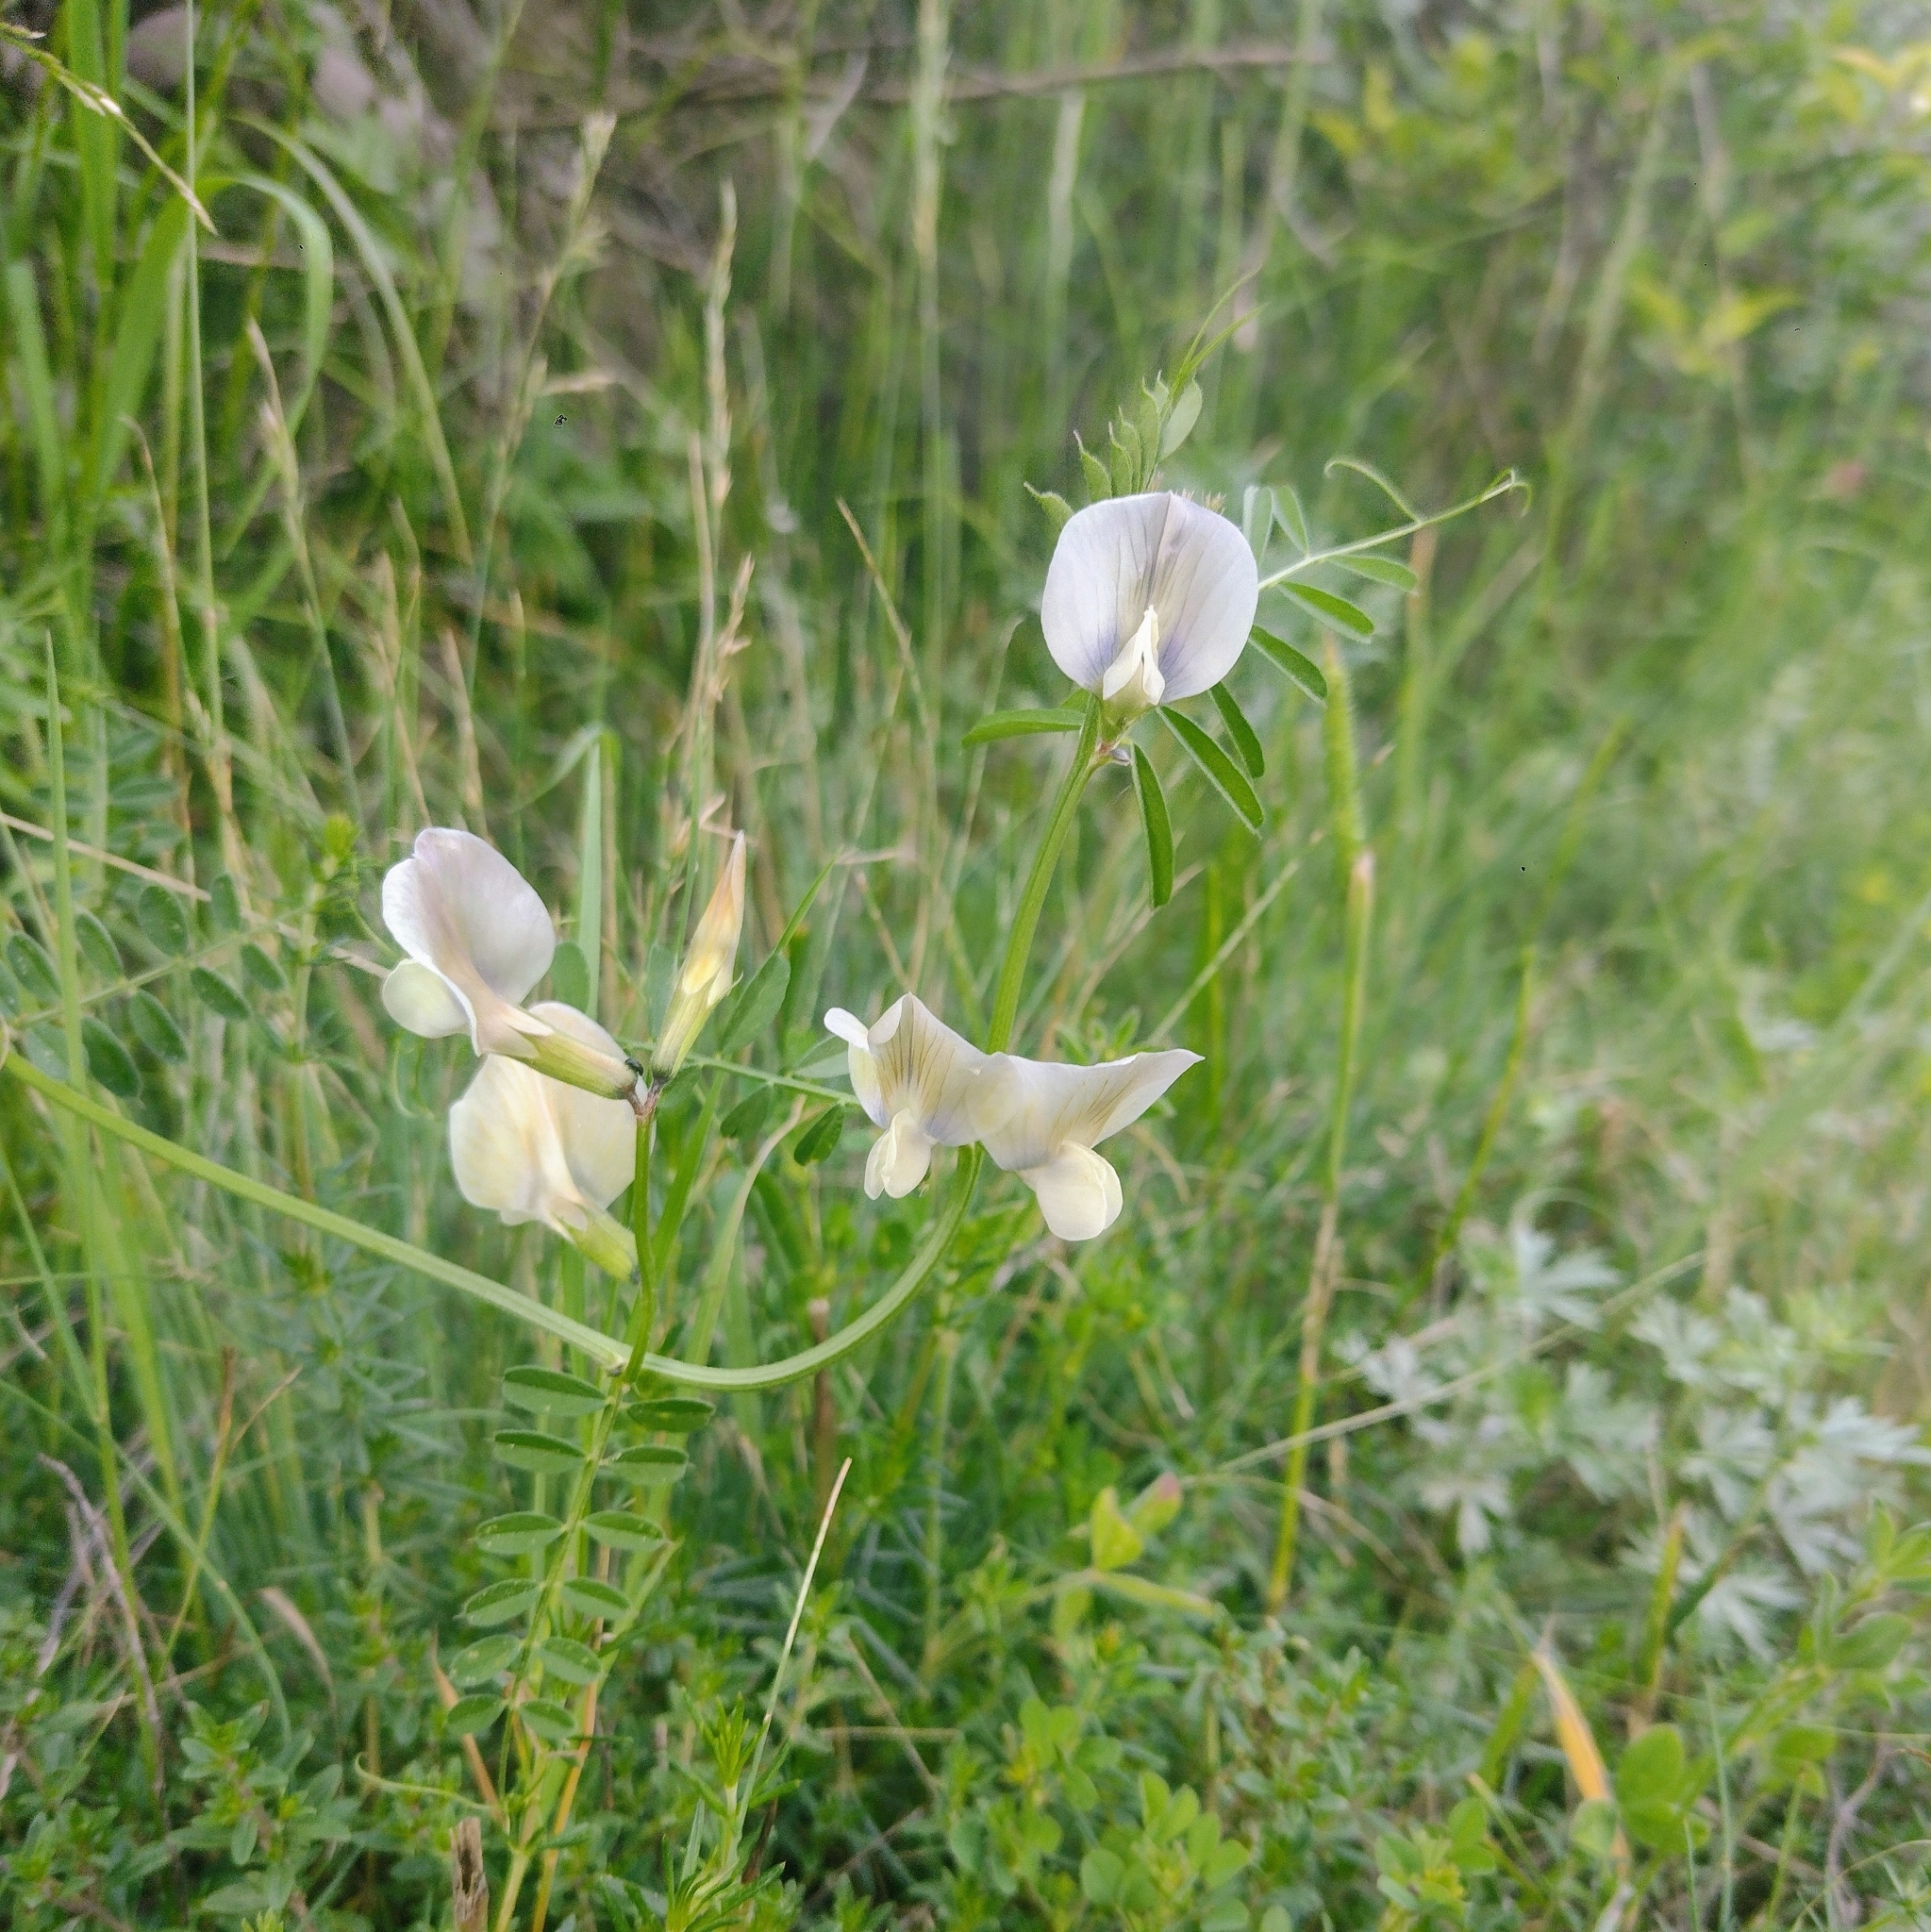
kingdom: Plantae
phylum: Tracheophyta
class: Magnoliopsida
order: Fabales
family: Fabaceae
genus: Vicia
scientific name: Vicia grandiflora
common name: Large yellow vetch
